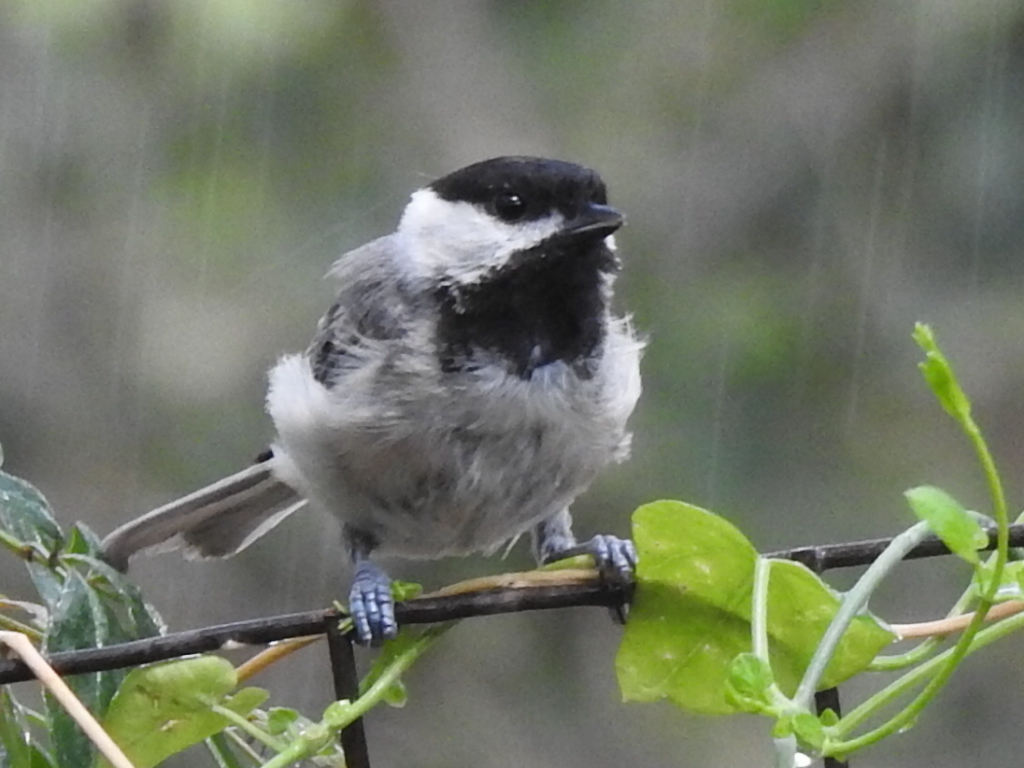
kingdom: Animalia
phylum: Chordata
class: Aves
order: Passeriformes
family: Paridae
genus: Poecile
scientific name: Poecile carolinensis
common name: Carolina chickadee
